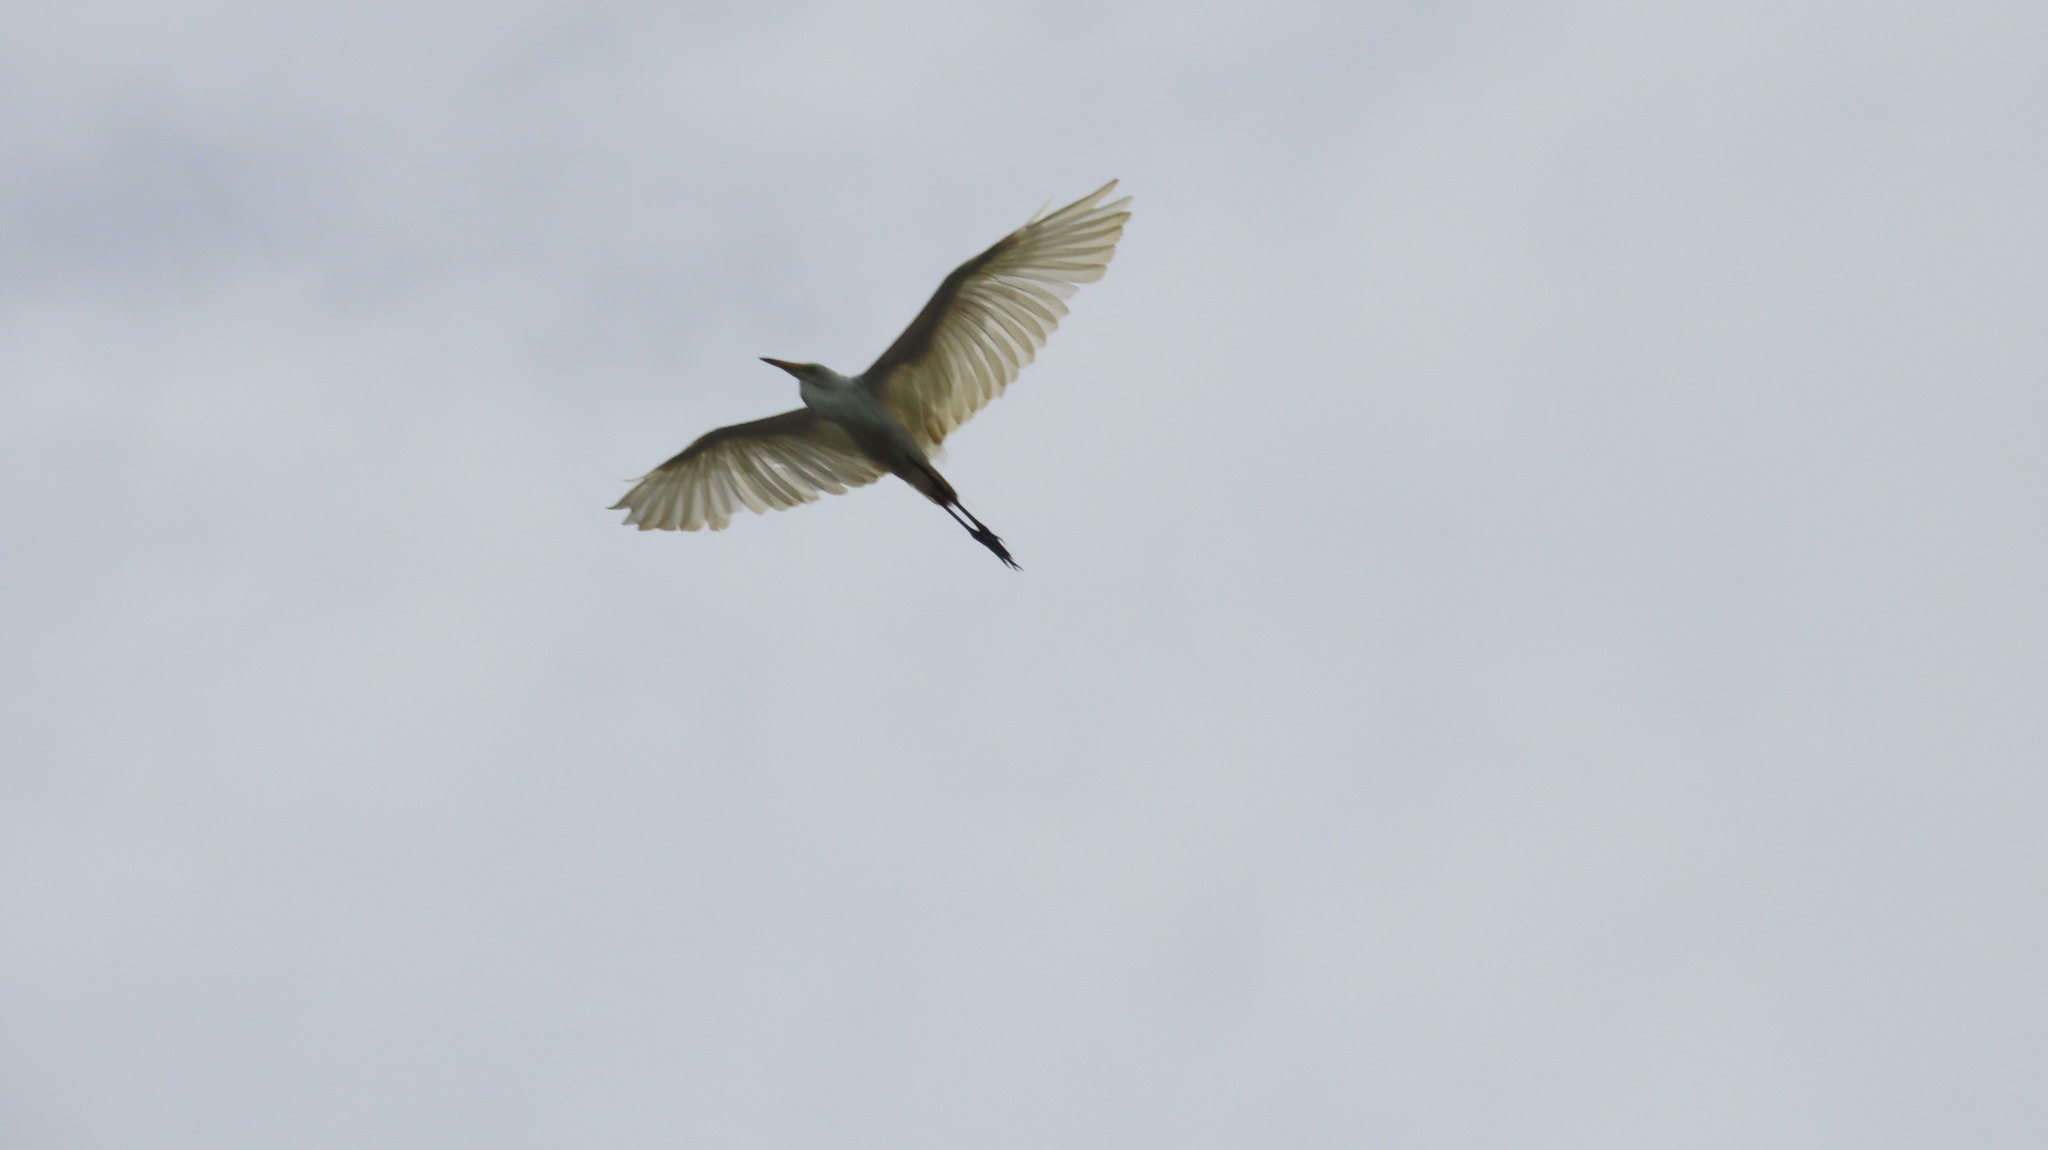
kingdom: Animalia
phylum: Chordata
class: Aves
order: Pelecaniformes
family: Ardeidae
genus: Egretta
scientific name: Egretta intermedia
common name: Intermediate egret
